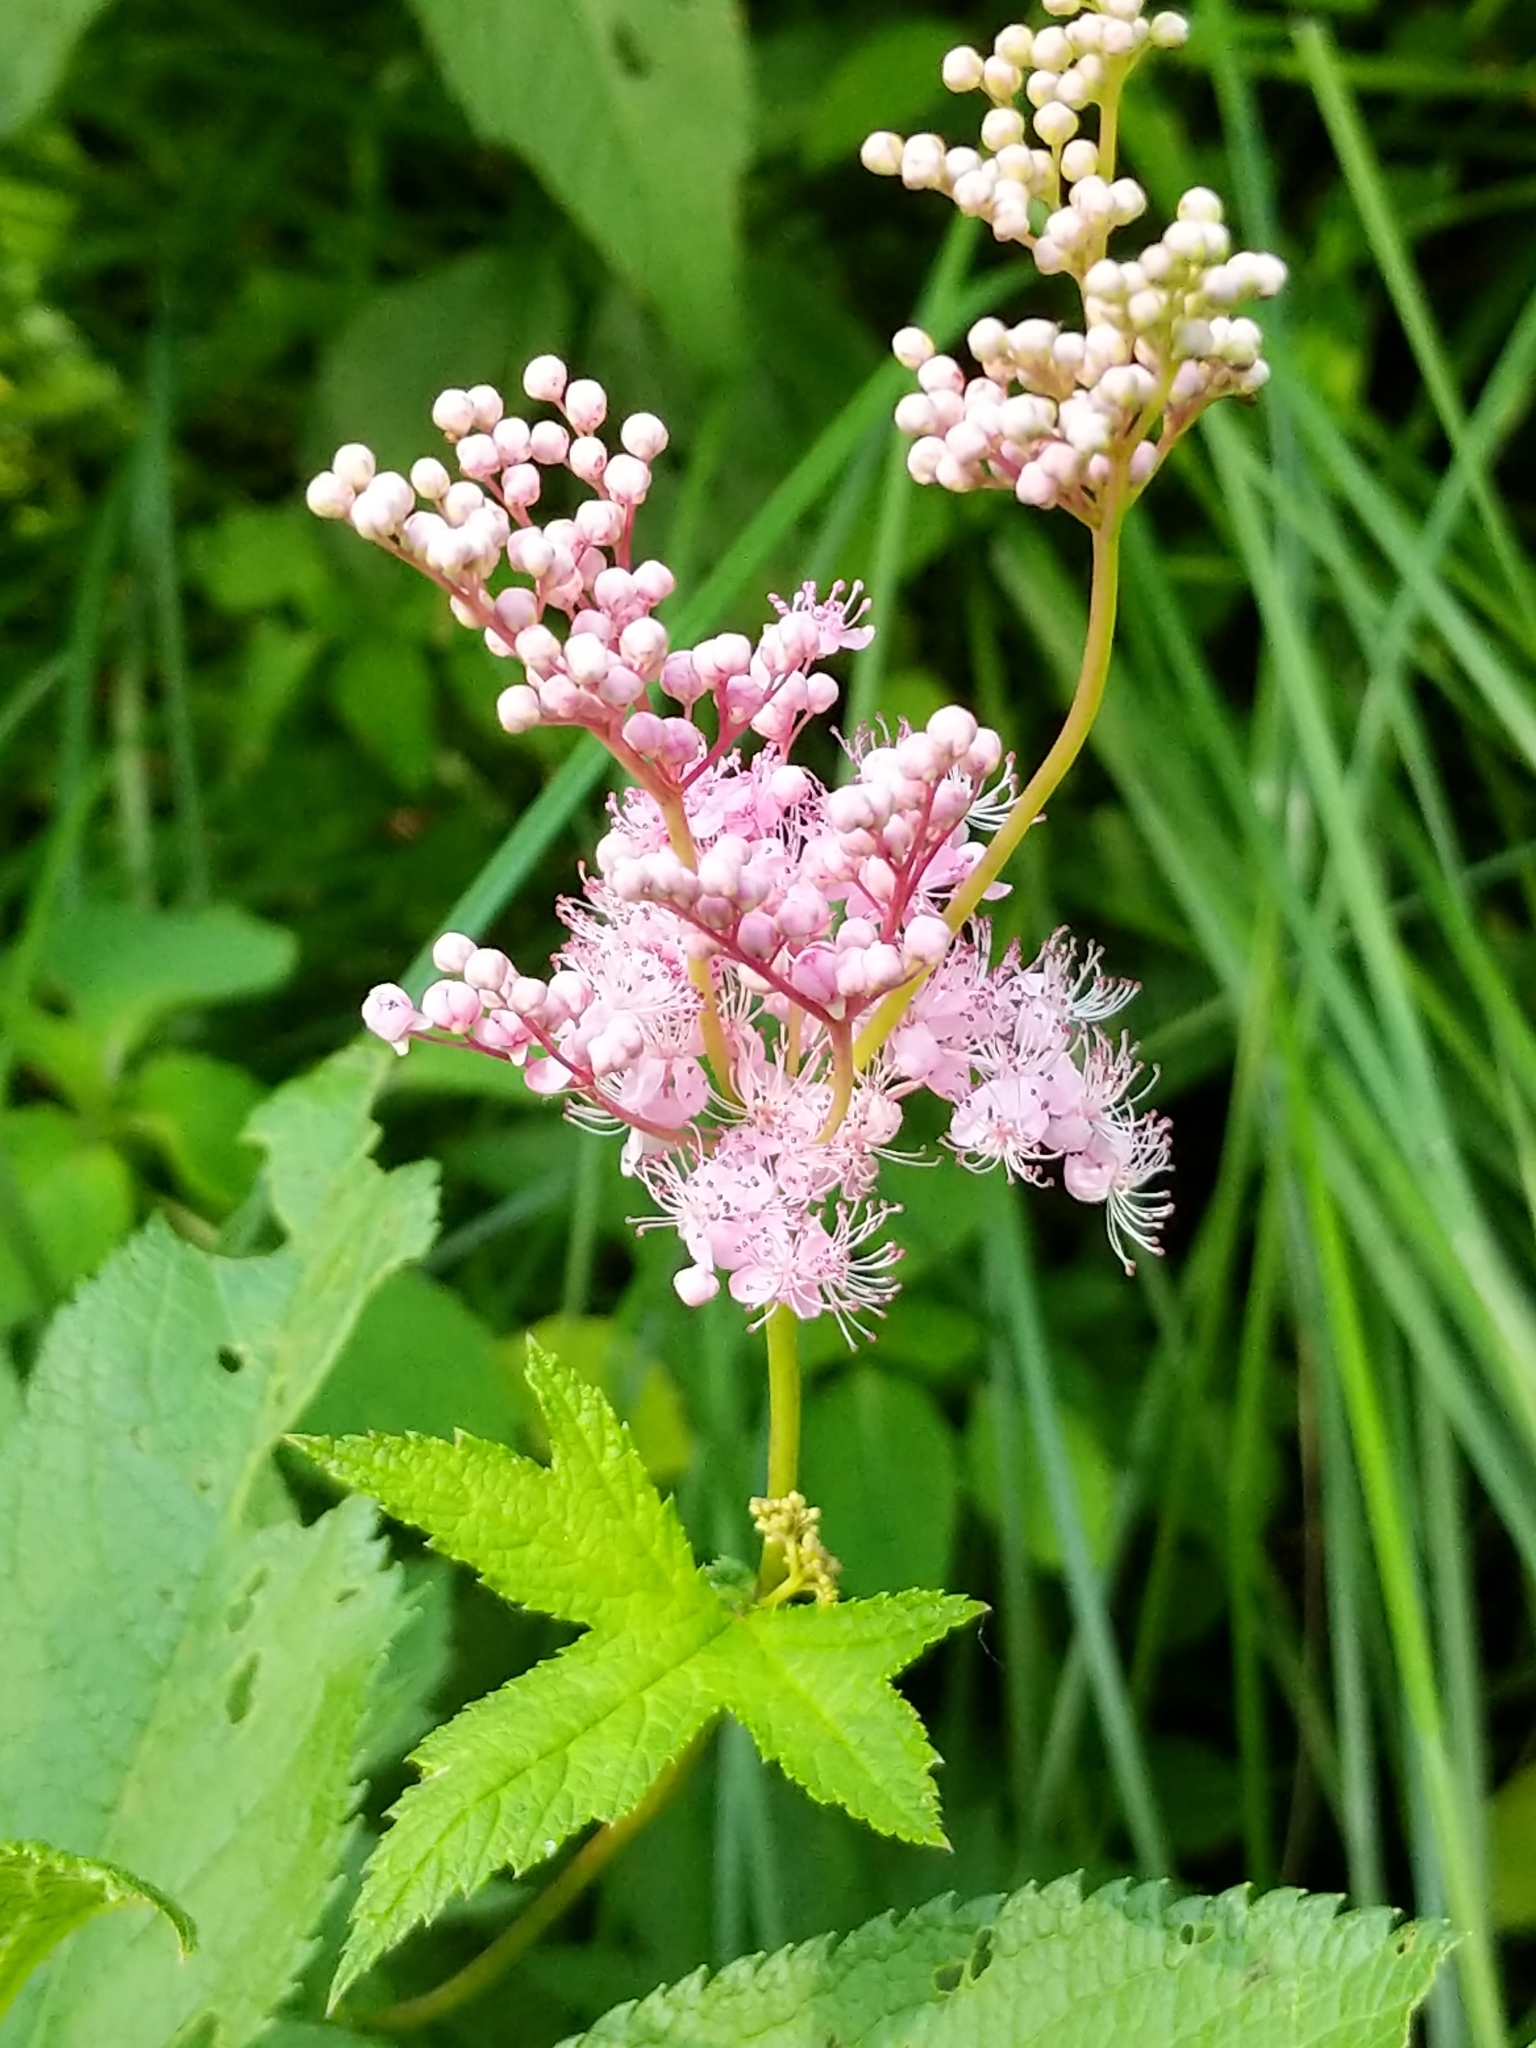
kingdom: Plantae
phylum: Tracheophyta
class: Magnoliopsida
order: Rosales
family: Rosaceae
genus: Filipendula
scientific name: Filipendula rubra
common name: Queen-of-the-prairie
